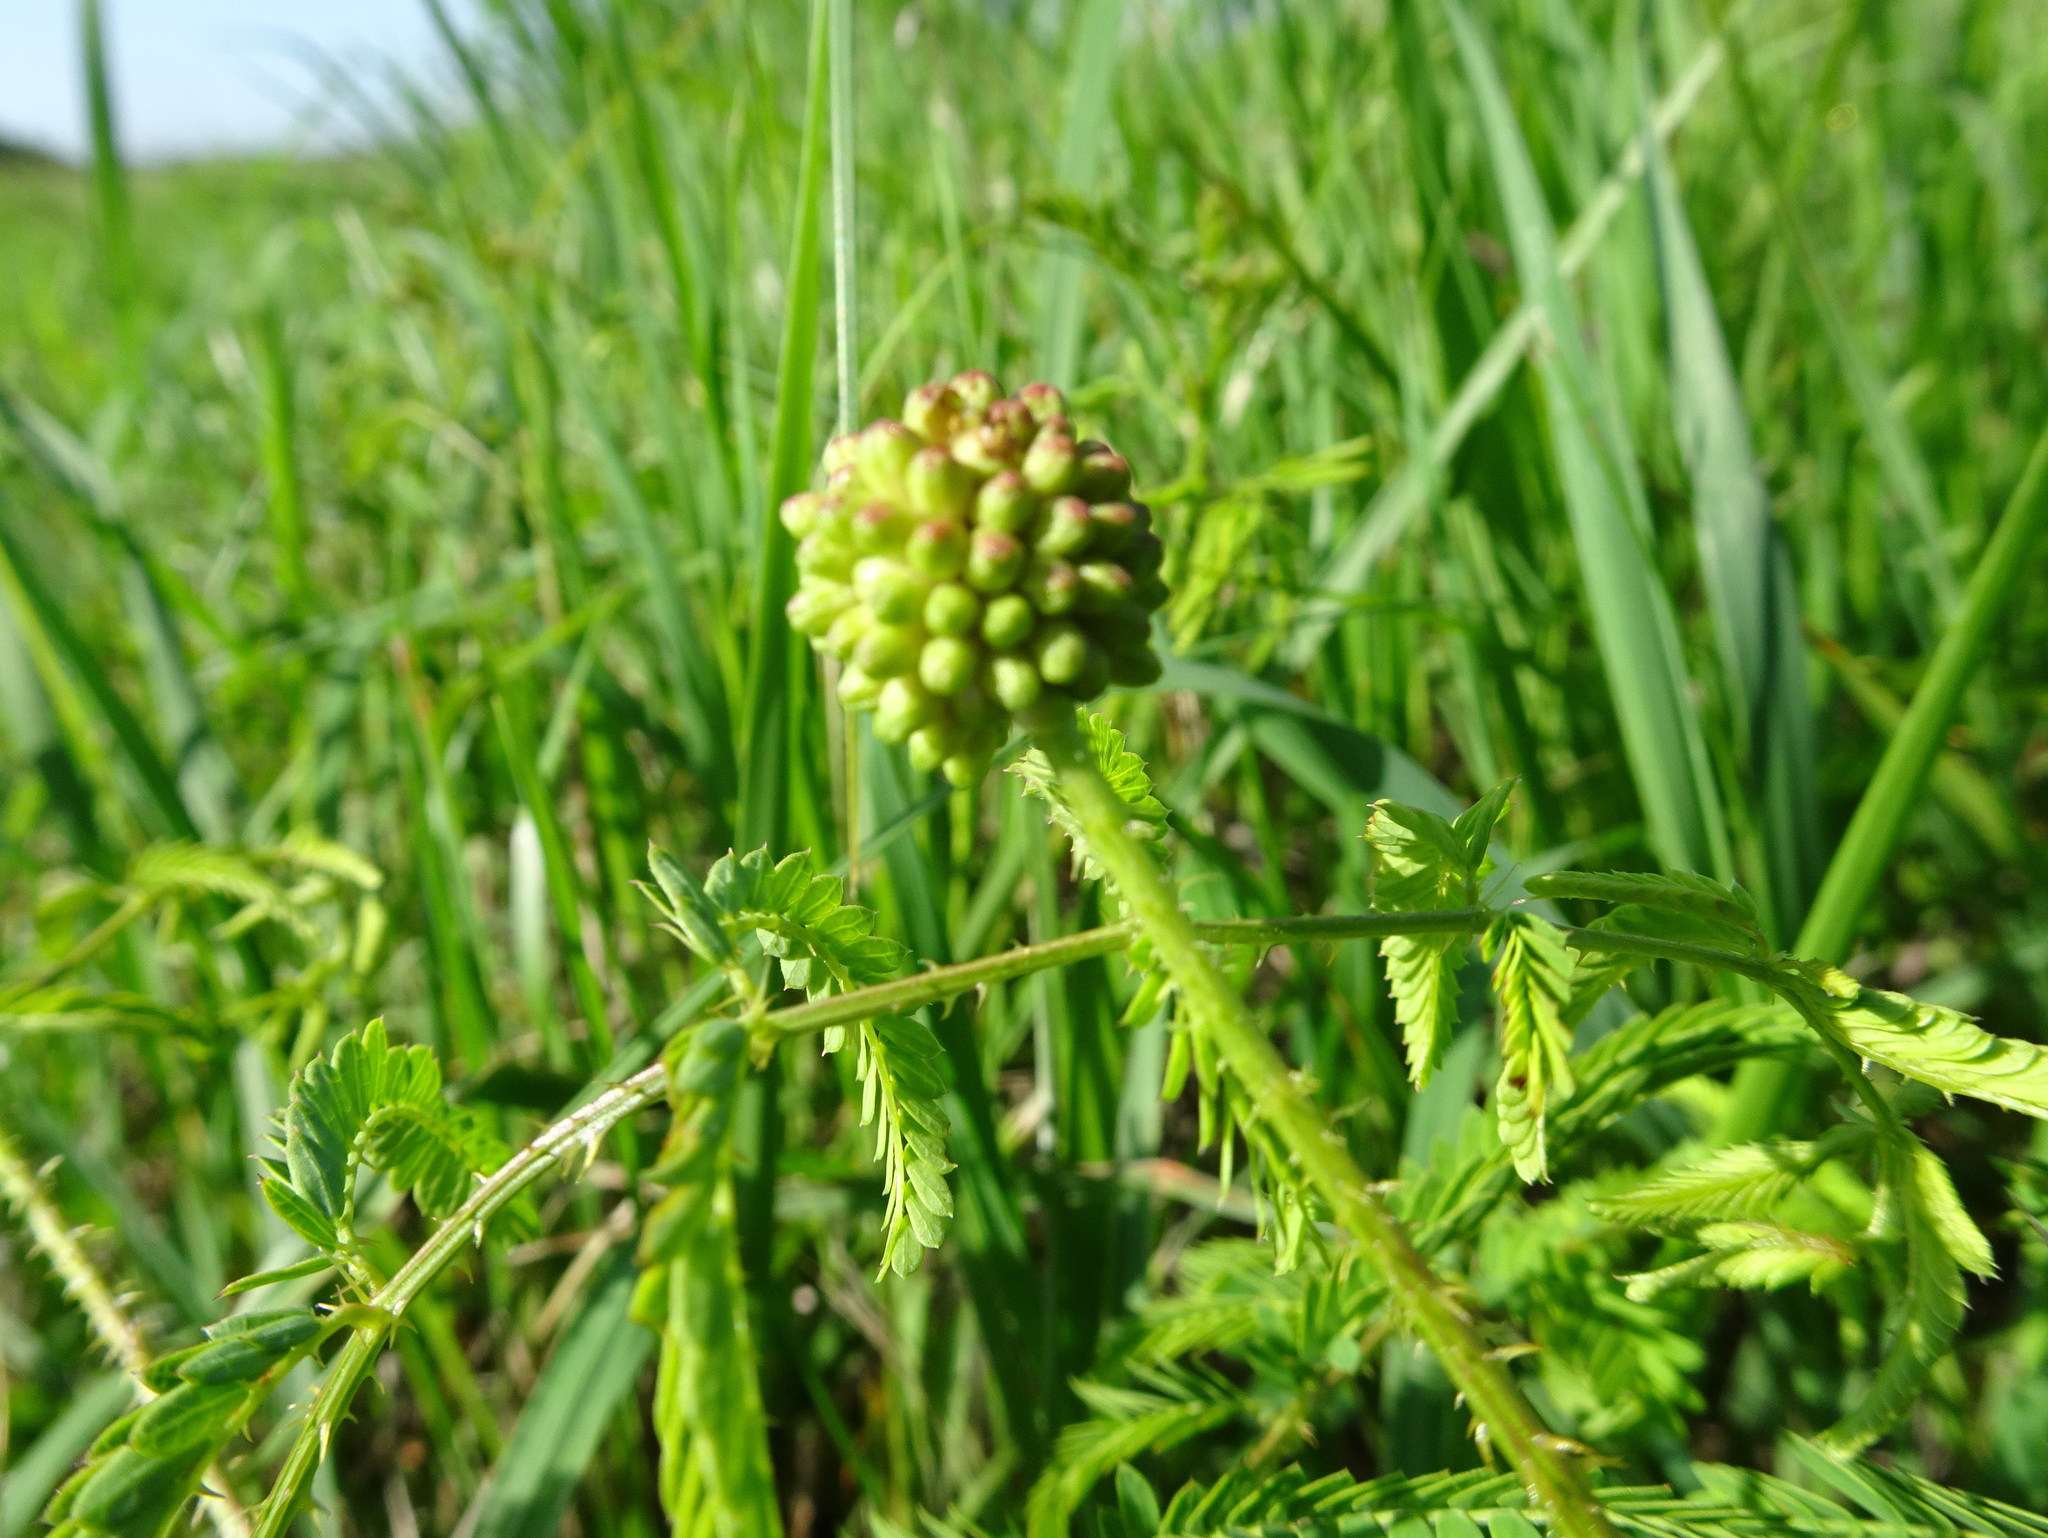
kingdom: Plantae
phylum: Tracheophyta
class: Magnoliopsida
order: Fabales
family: Fabaceae
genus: Mimosa
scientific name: Mimosa quadrivalvis
